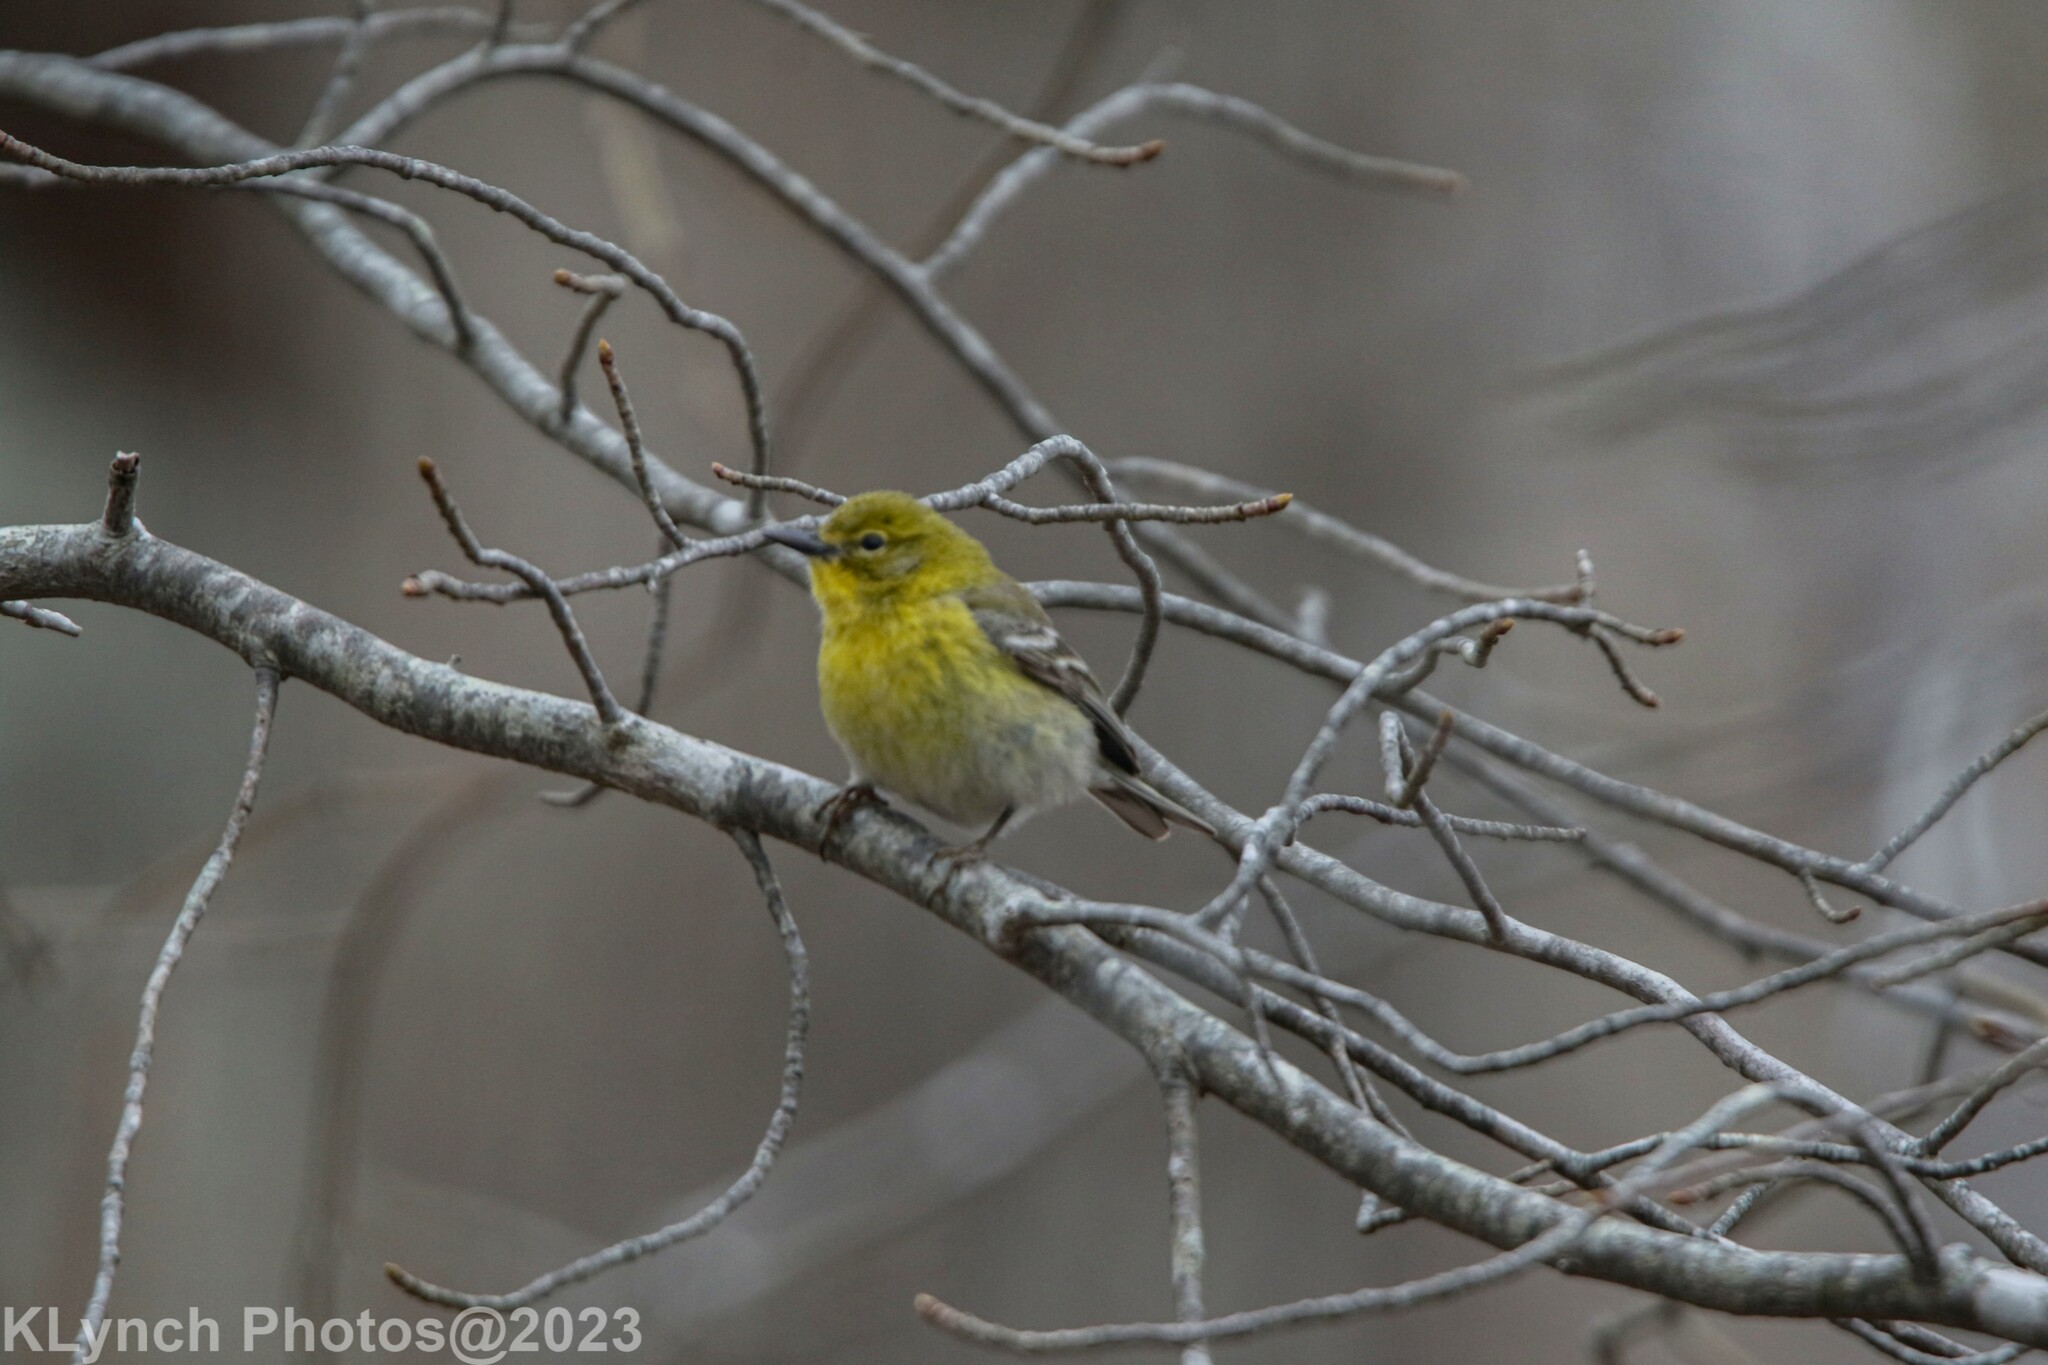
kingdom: Animalia
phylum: Chordata
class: Aves
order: Passeriformes
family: Parulidae
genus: Setophaga
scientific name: Setophaga pinus
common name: Pine warbler
